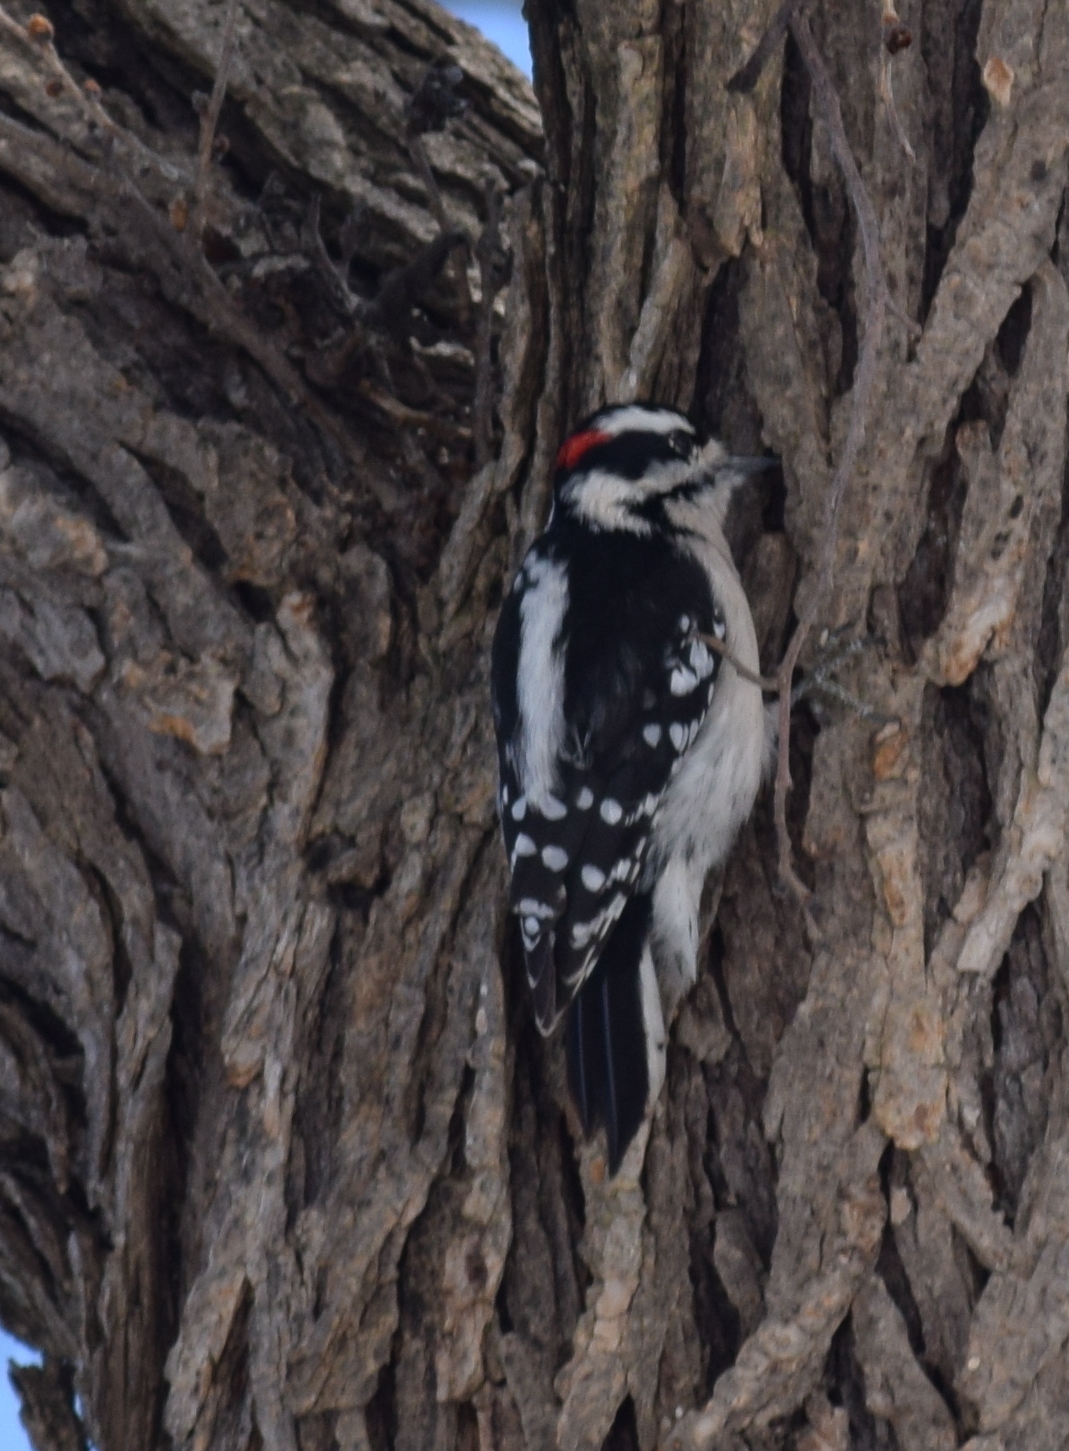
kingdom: Animalia
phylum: Chordata
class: Aves
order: Piciformes
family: Picidae
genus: Dryobates
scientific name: Dryobates pubescens
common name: Downy woodpecker
